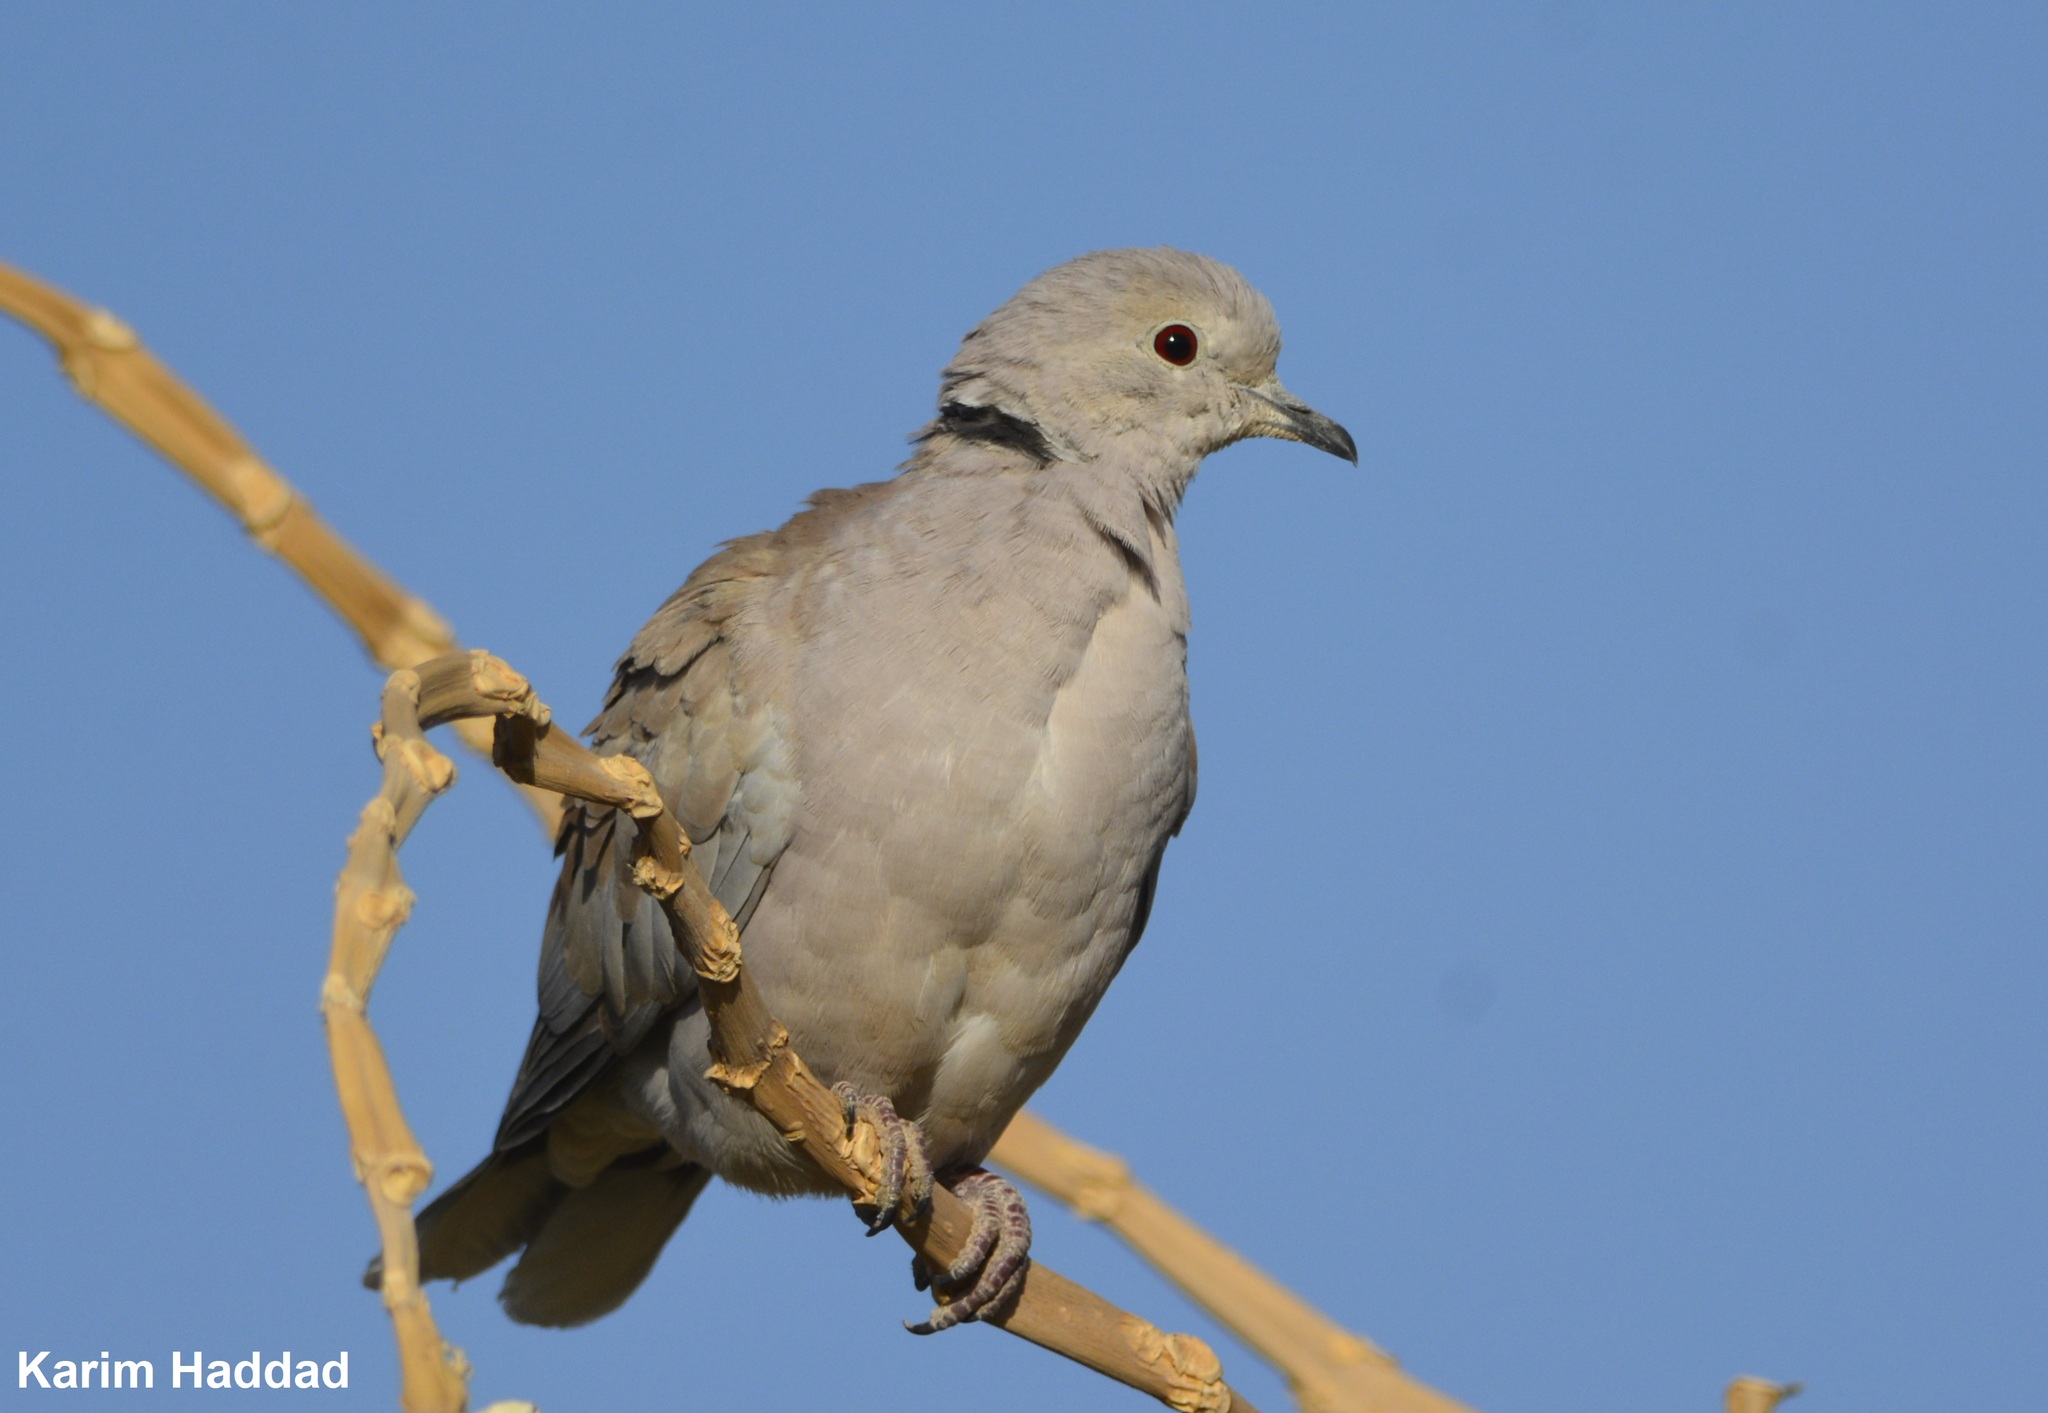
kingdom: Animalia
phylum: Chordata
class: Aves
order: Columbiformes
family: Columbidae
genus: Streptopelia
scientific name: Streptopelia roseogrisea
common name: African collared dove
